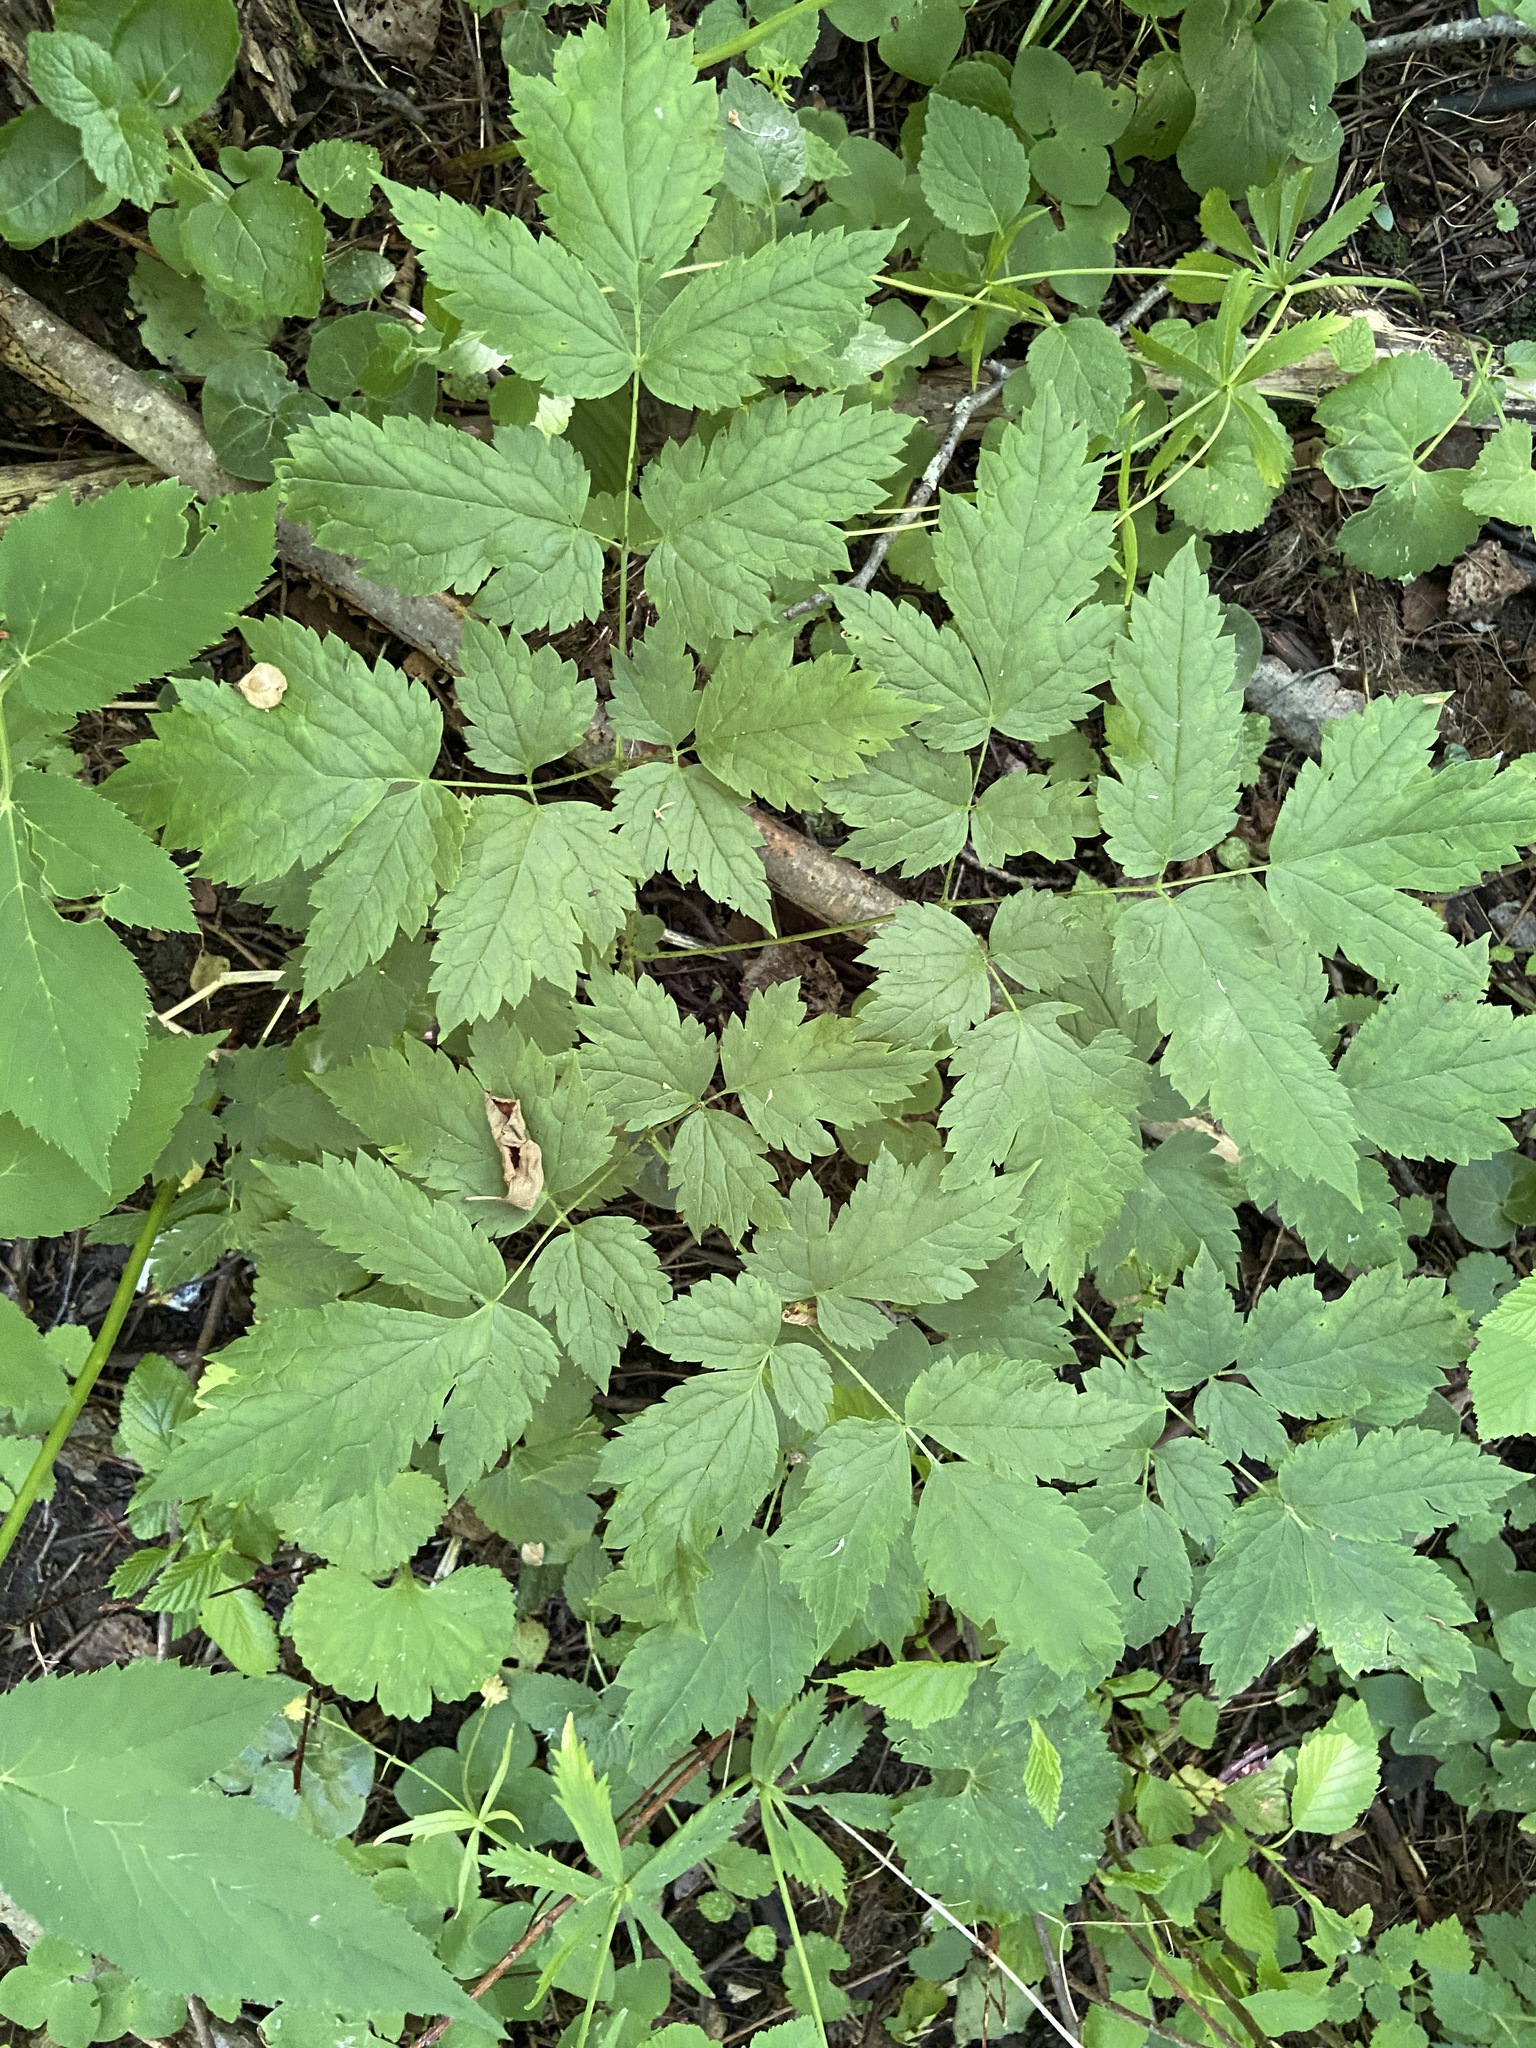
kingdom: Plantae
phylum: Tracheophyta
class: Magnoliopsida
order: Ranunculales
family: Ranunculaceae
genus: Actaea
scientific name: Actaea spicata
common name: Baneberry
